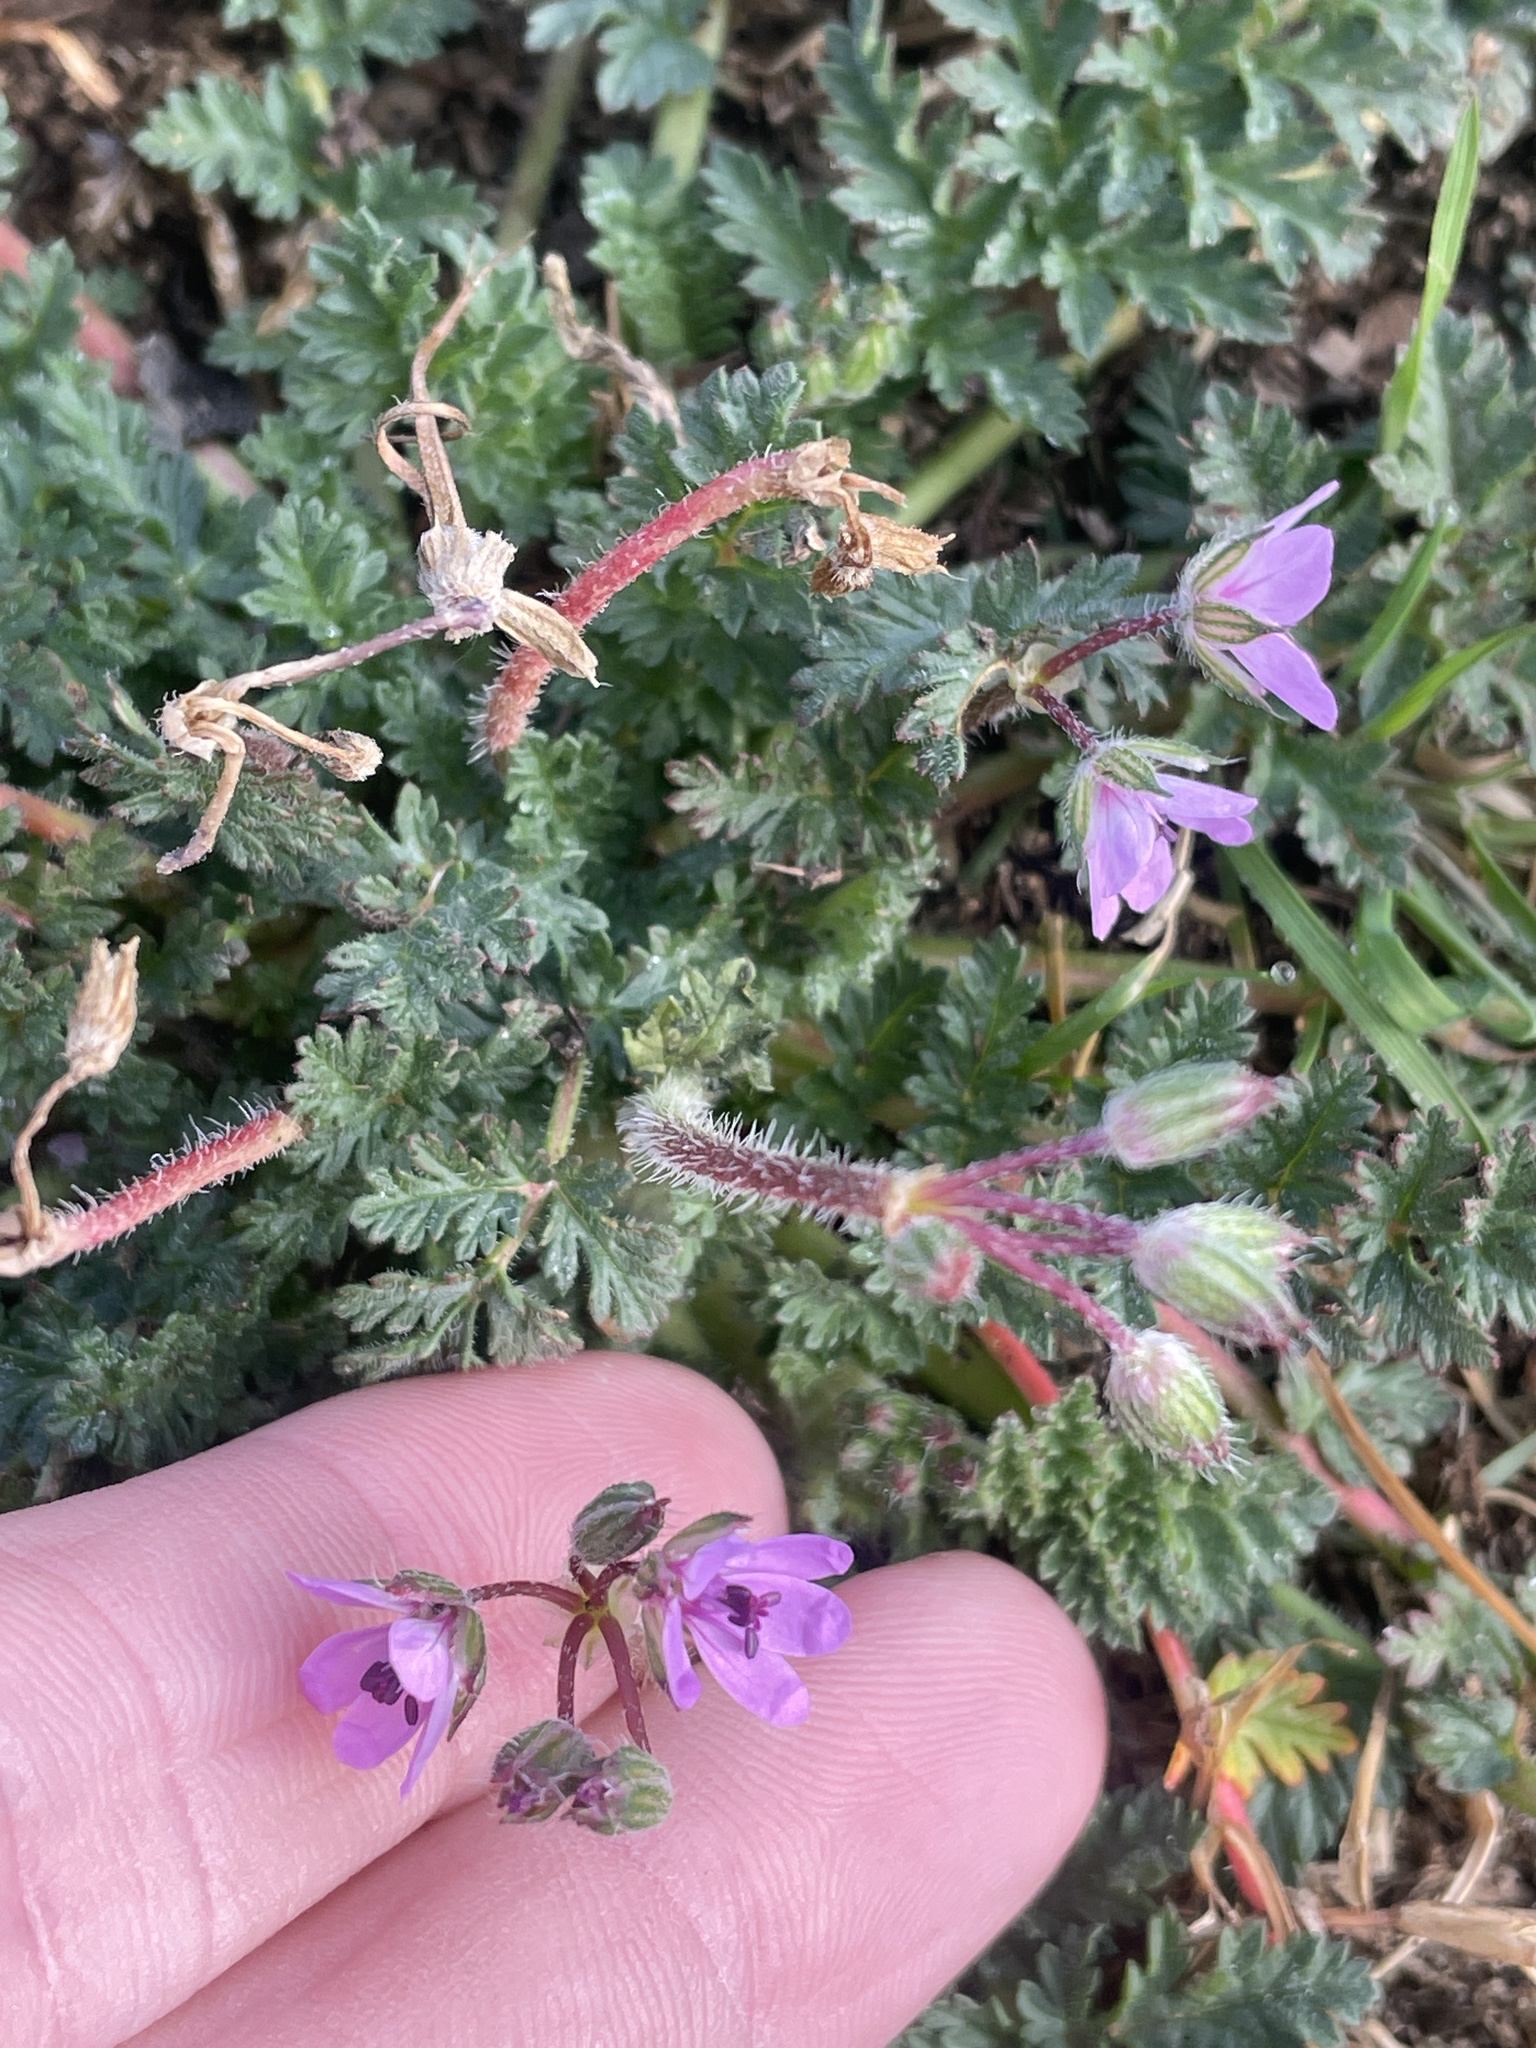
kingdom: Plantae
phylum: Tracheophyta
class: Magnoliopsida
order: Geraniales
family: Geraniaceae
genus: Erodium
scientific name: Erodium cicutarium
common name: Common stork's-bill
